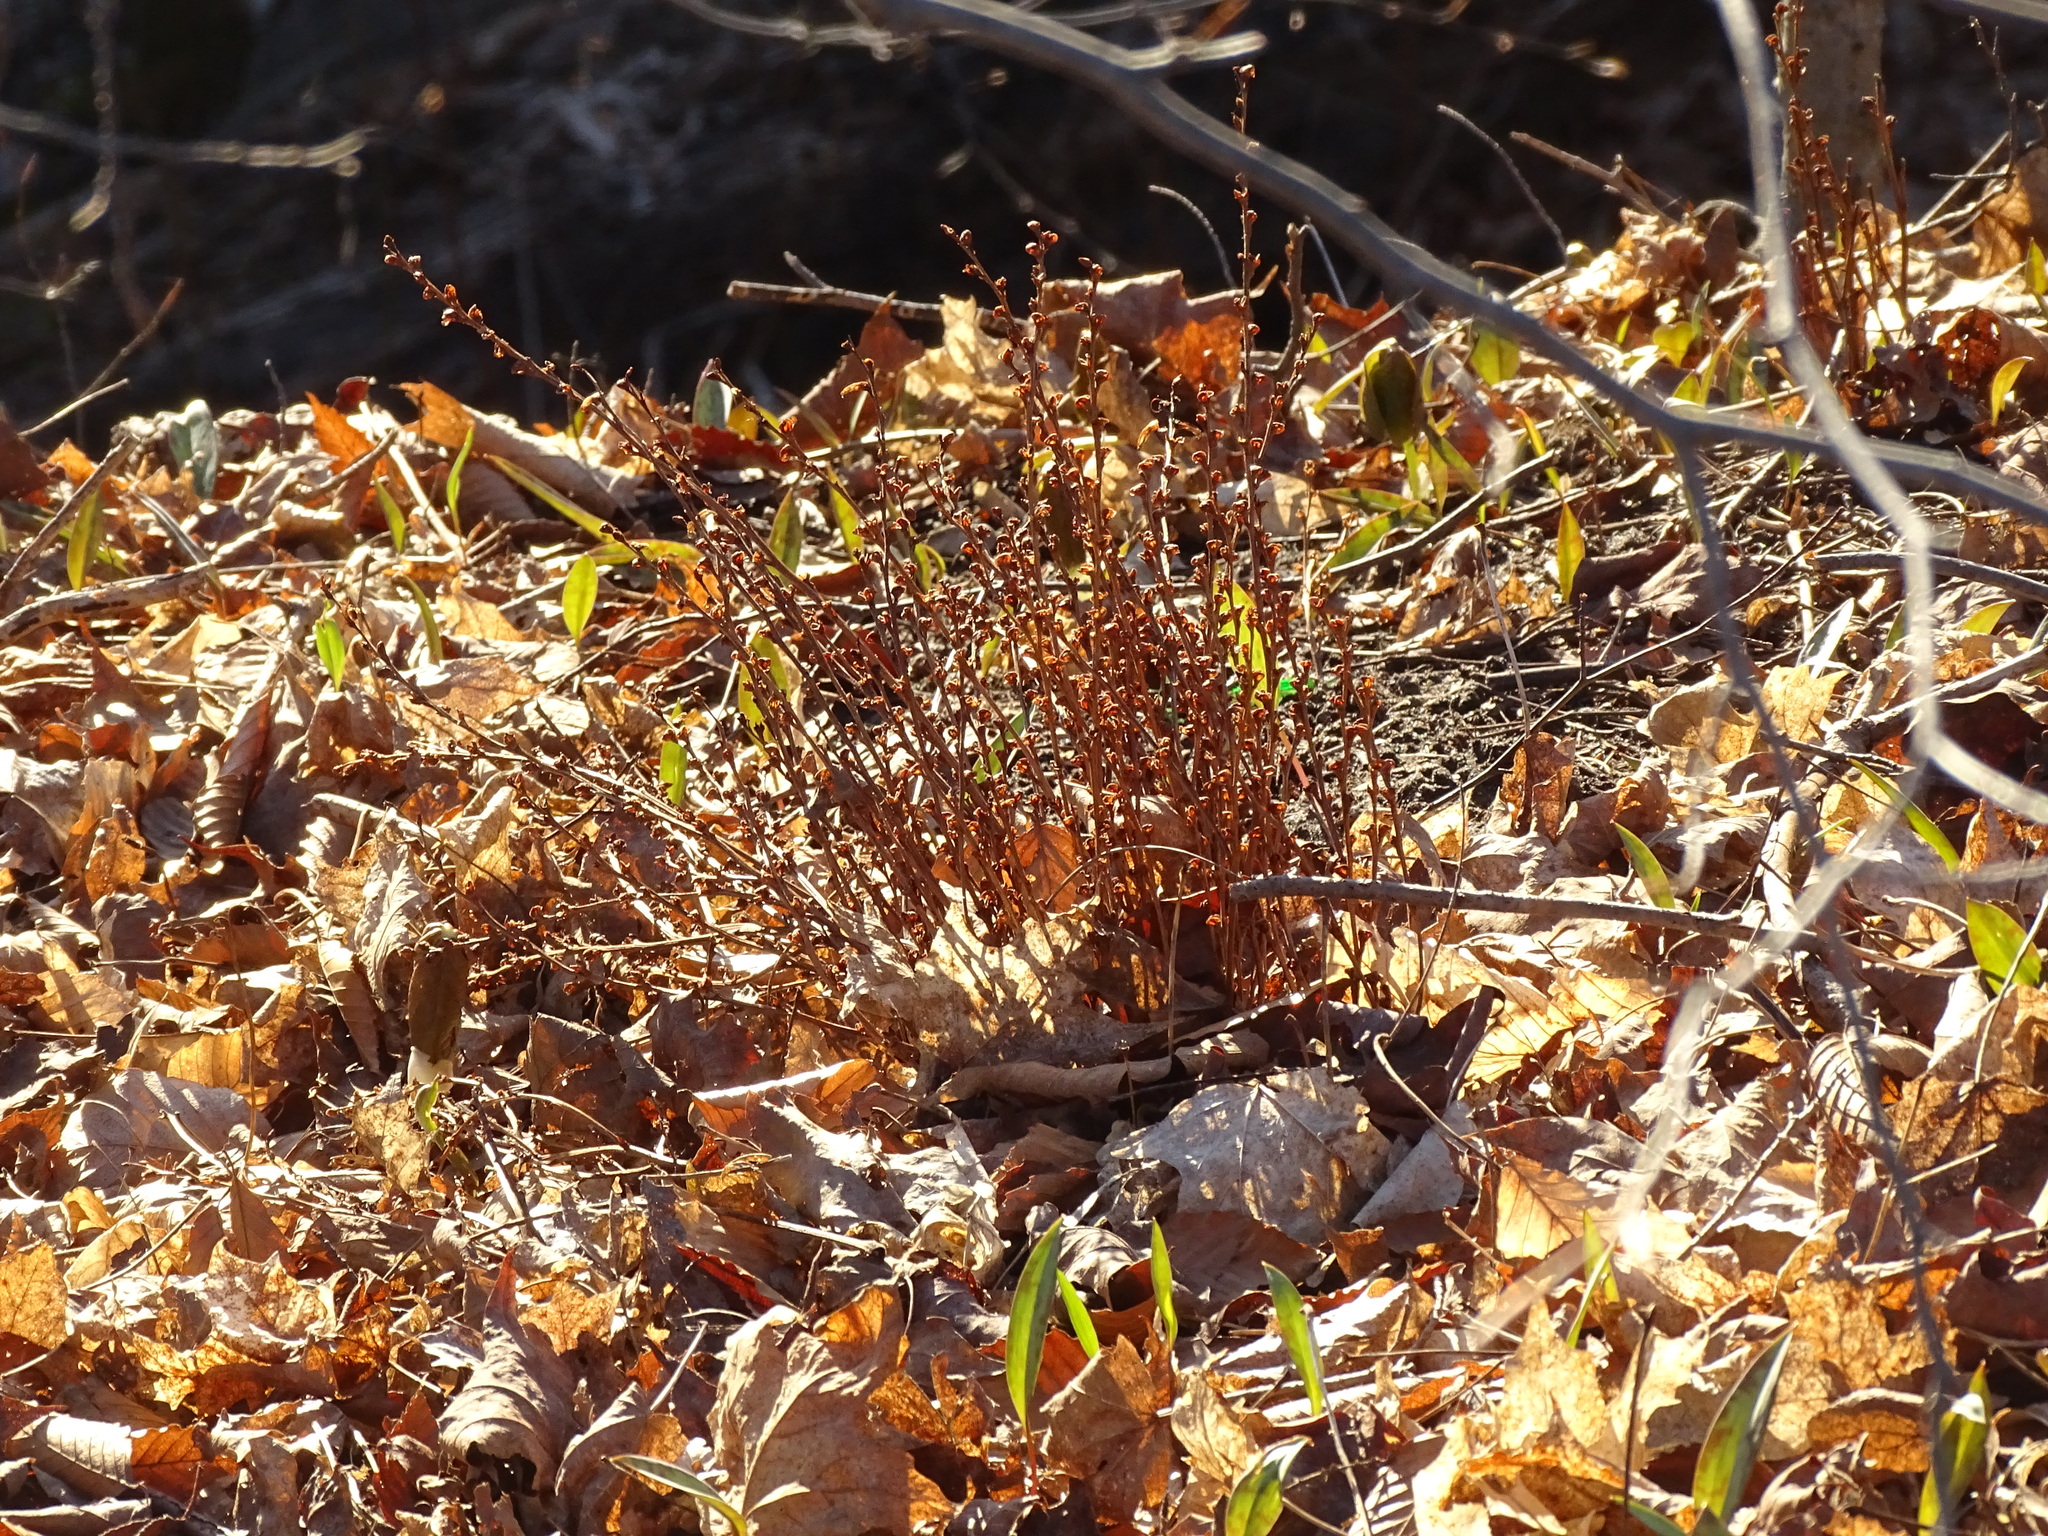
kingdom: Plantae
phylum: Tracheophyta
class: Magnoliopsida
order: Lamiales
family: Orobanchaceae
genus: Epifagus
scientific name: Epifagus virginiana
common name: Beechdrops
